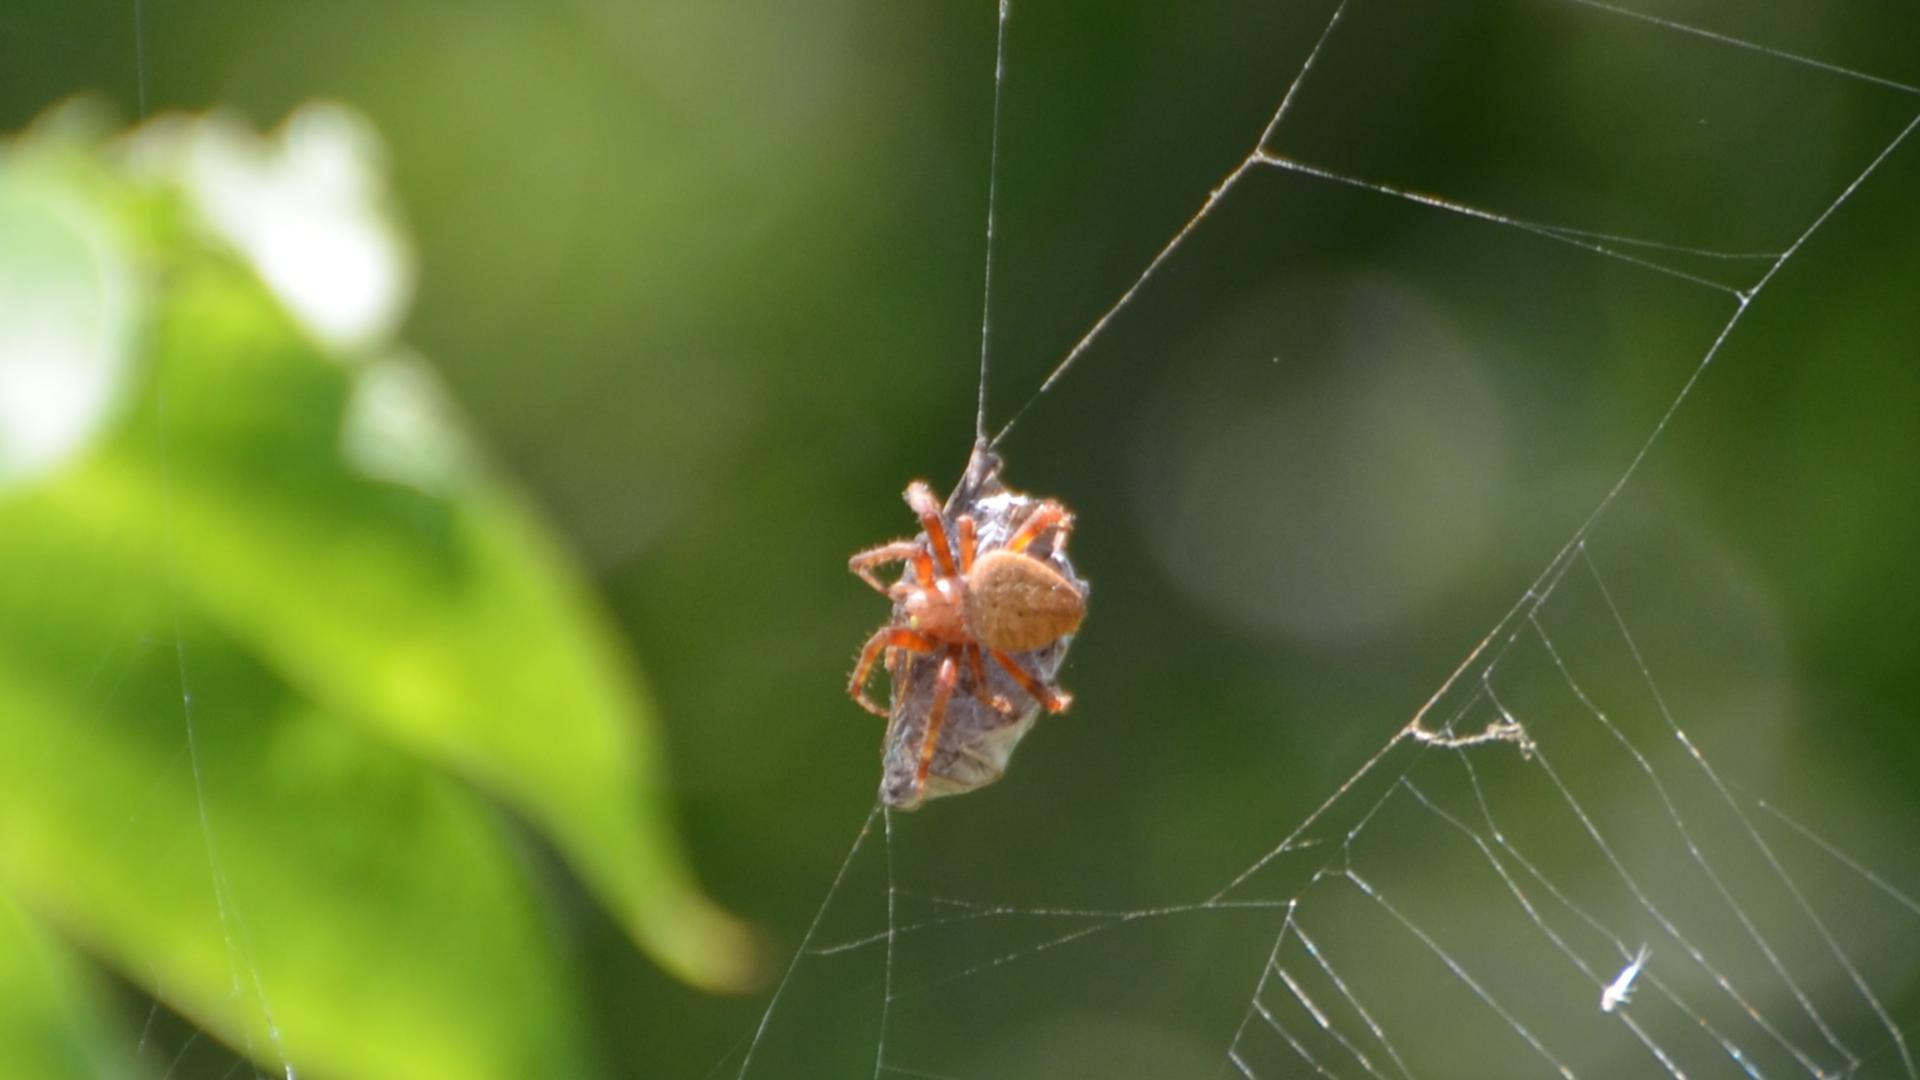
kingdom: Animalia
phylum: Arthropoda
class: Arachnida
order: Araneae
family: Araneidae
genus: Neoscona
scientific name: Neoscona crucifera
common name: Spotted orbweaver
